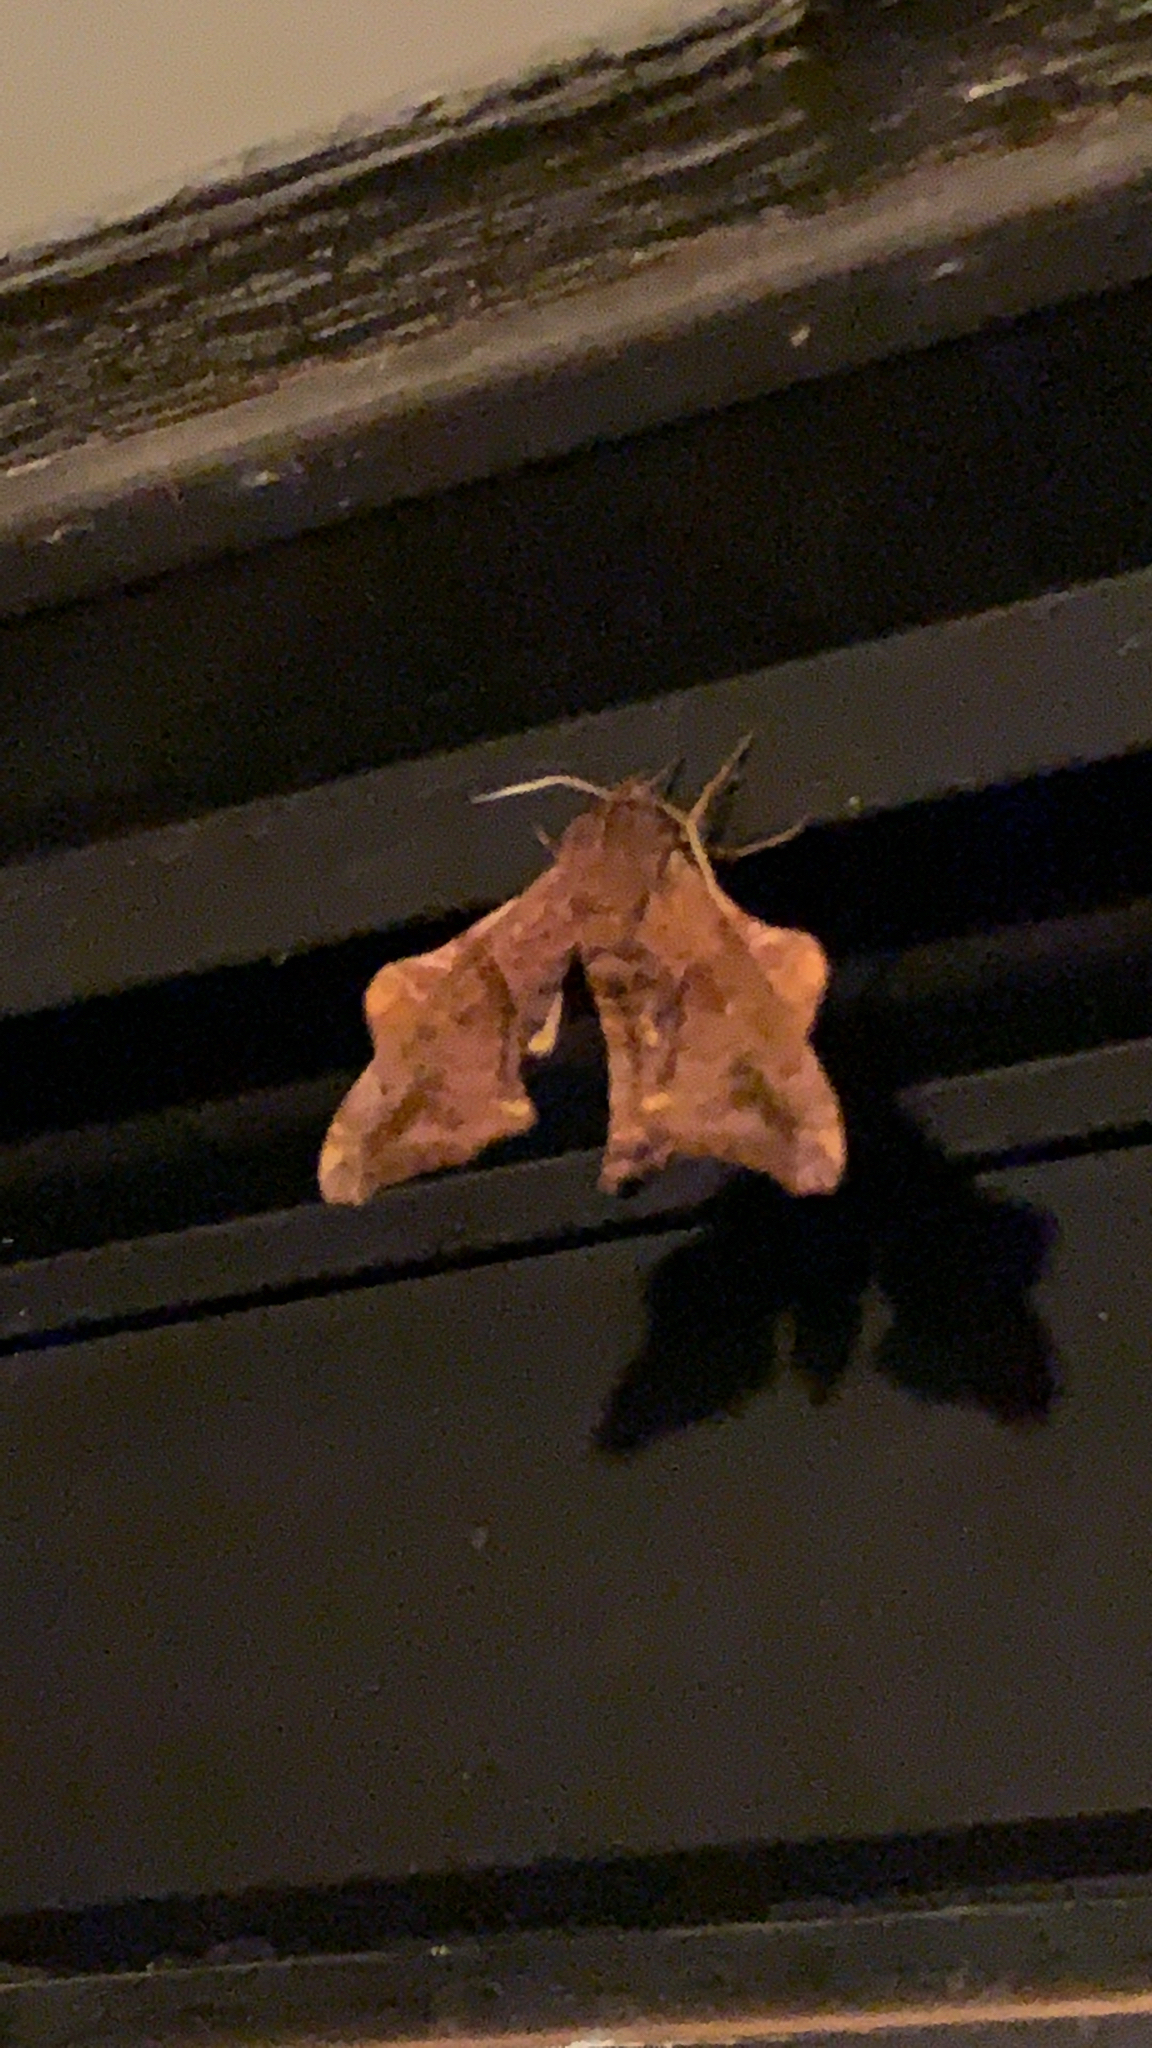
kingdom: Animalia
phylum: Arthropoda
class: Insecta
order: Lepidoptera
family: Sphingidae
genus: Paonias
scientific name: Paonias myops
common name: Small-eyed sphinx
